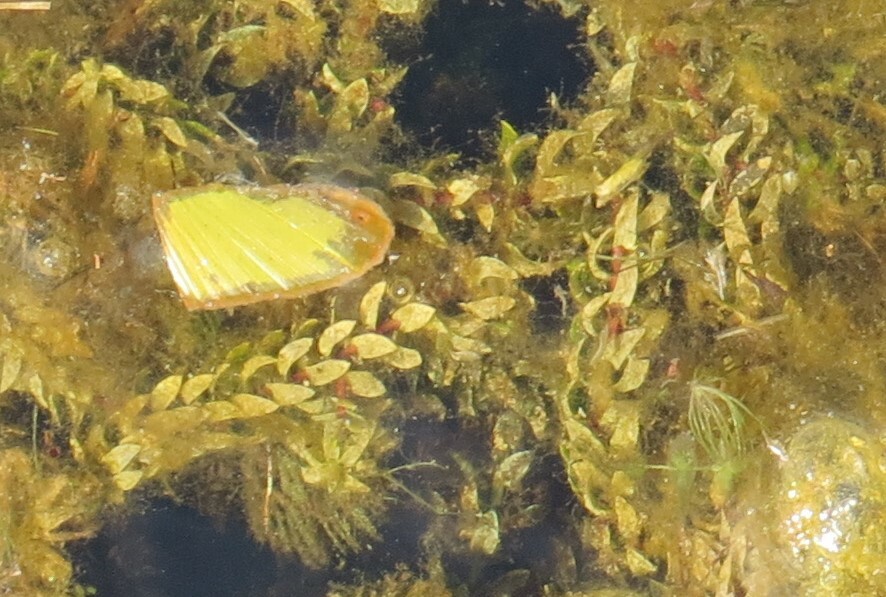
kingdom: Plantae
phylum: Tracheophyta
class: Liliopsida
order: Alismatales
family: Hydrocharitaceae
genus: Elodea
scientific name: Elodea canadensis
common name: Canadian waterweed
